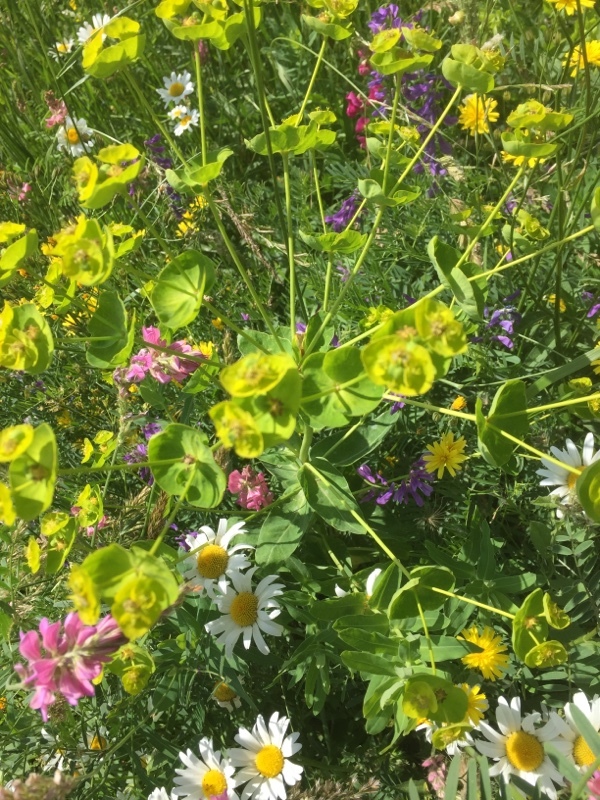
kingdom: Plantae
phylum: Tracheophyta
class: Magnoliopsida
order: Apiales
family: Apiaceae
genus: Bupleurum
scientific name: Bupleurum rotundifolium
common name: Thorow-wax
